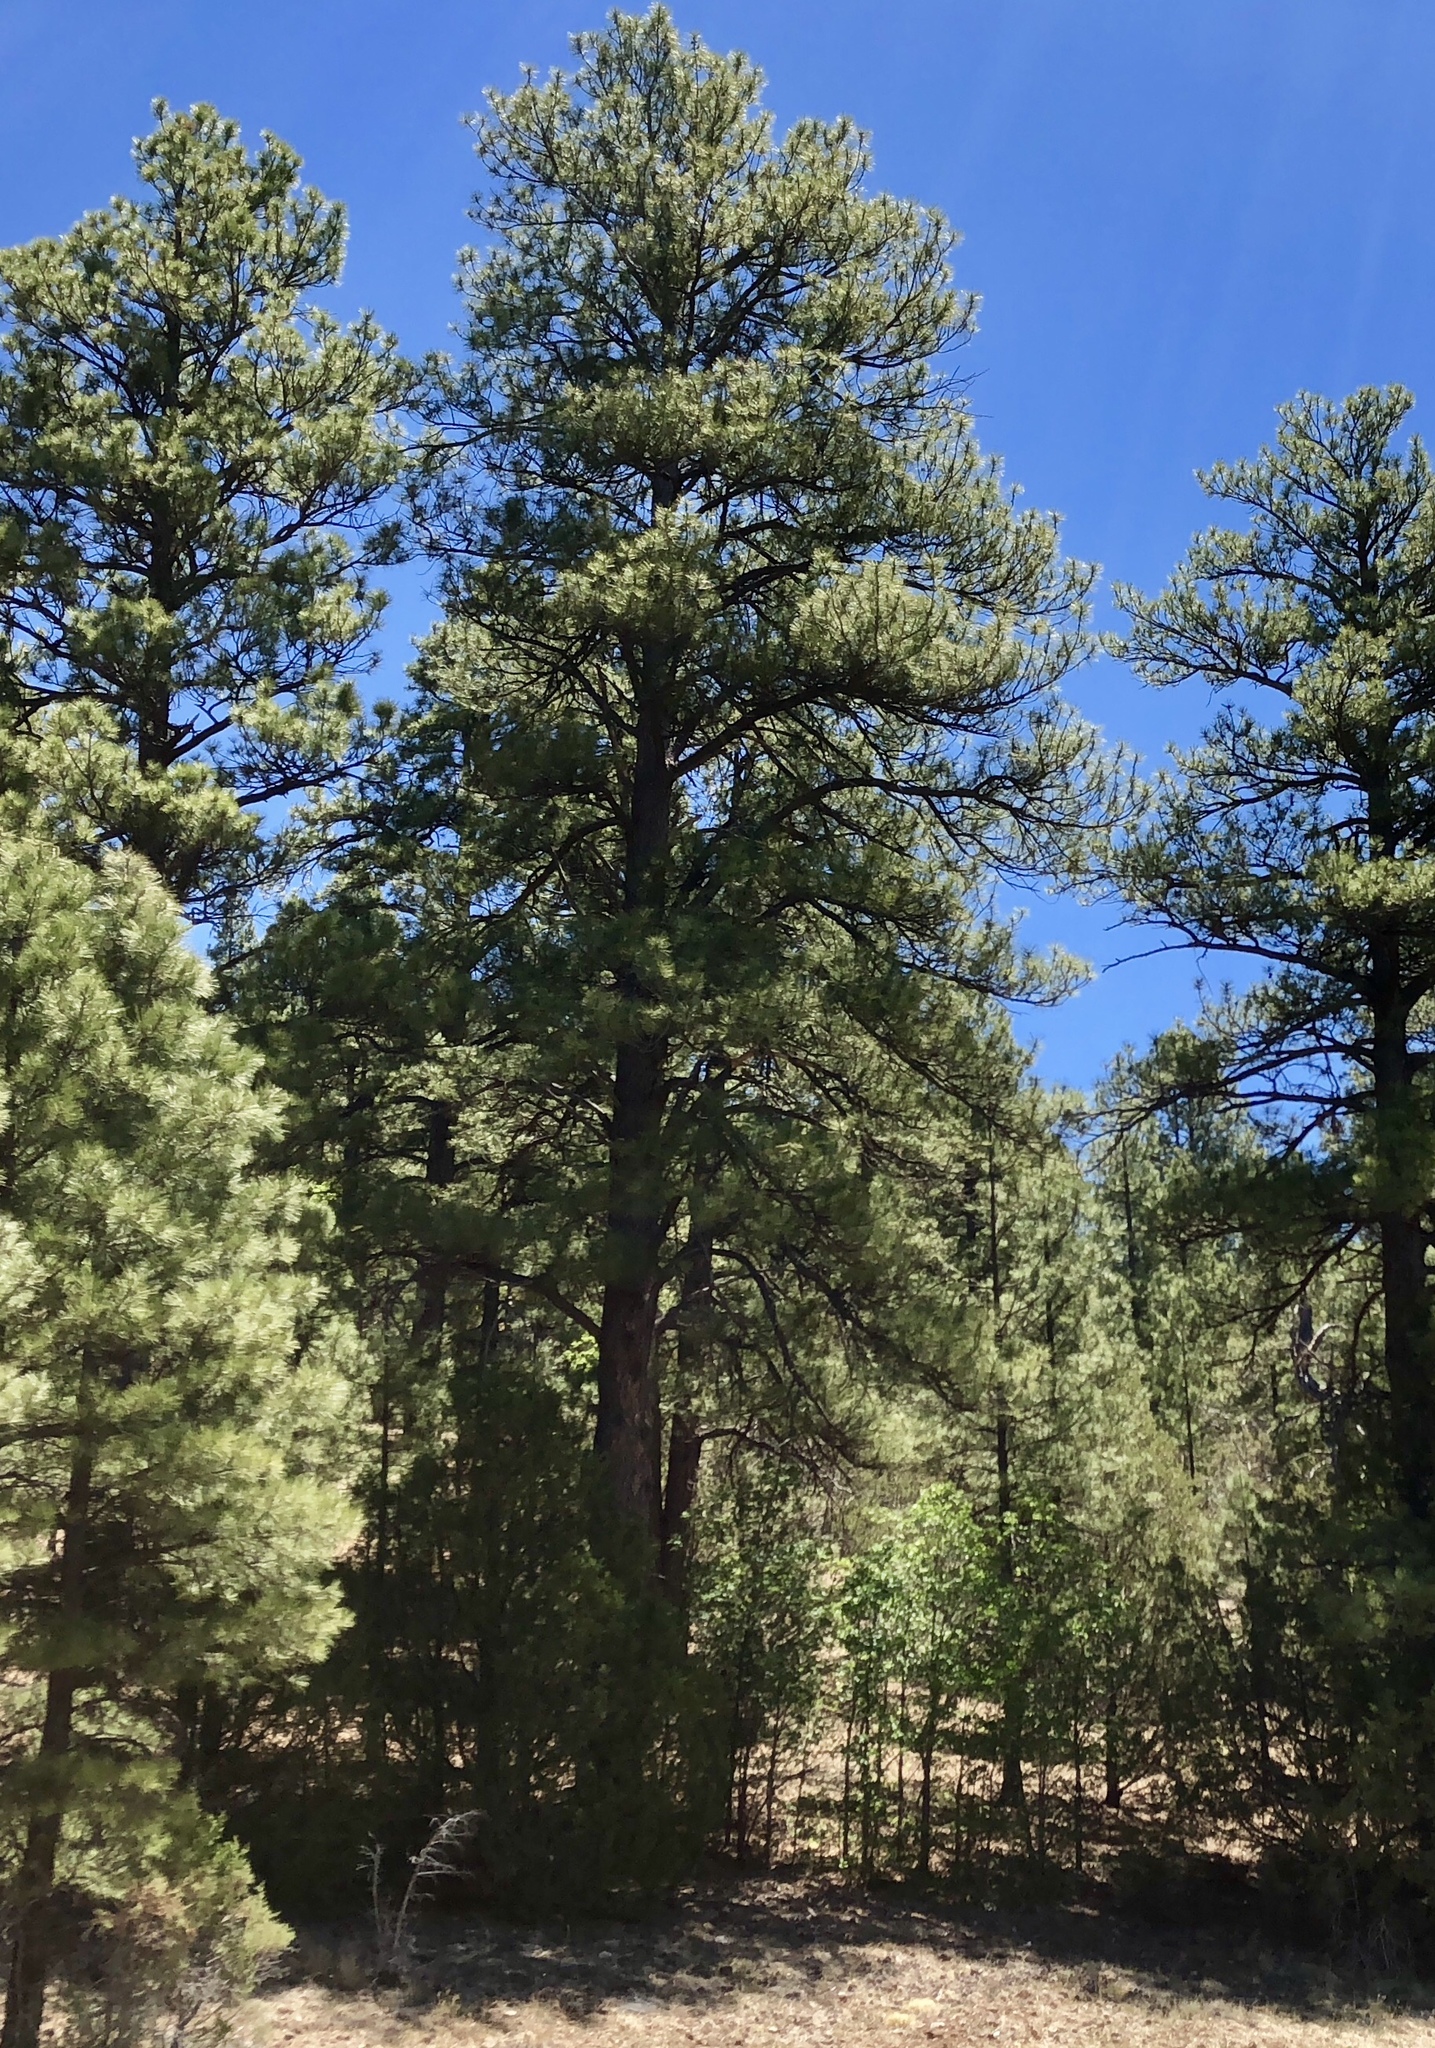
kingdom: Plantae
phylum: Tracheophyta
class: Pinopsida
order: Pinales
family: Pinaceae
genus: Pinus
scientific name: Pinus ponderosa
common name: Western yellow-pine
